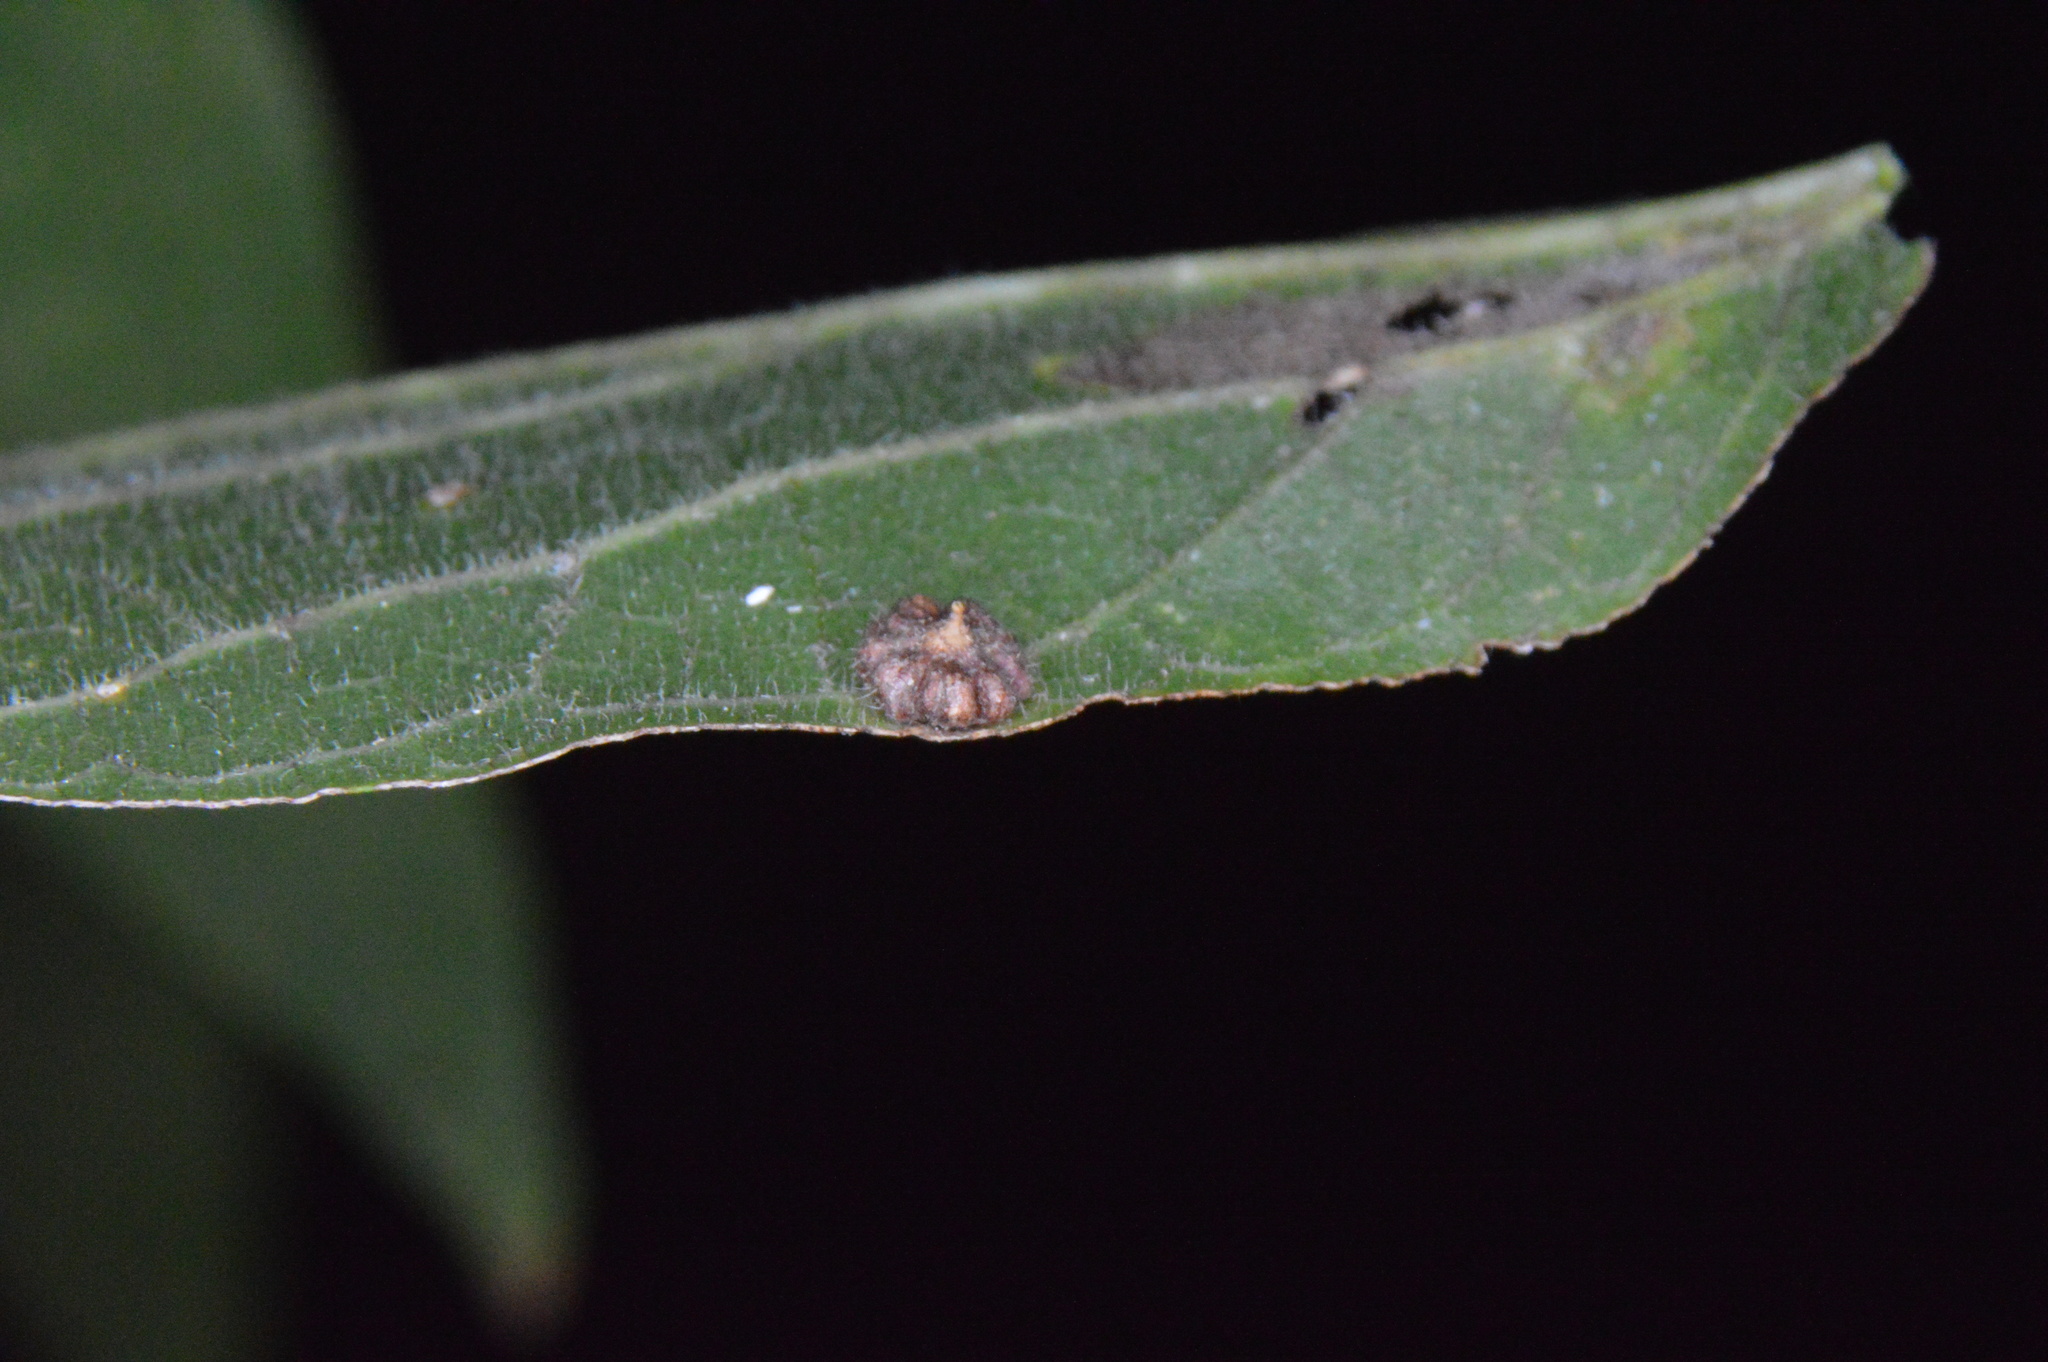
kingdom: Animalia
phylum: Arthropoda
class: Insecta
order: Diptera
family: Cecidomyiidae
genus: Celticecis
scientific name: Celticecis capsularis
